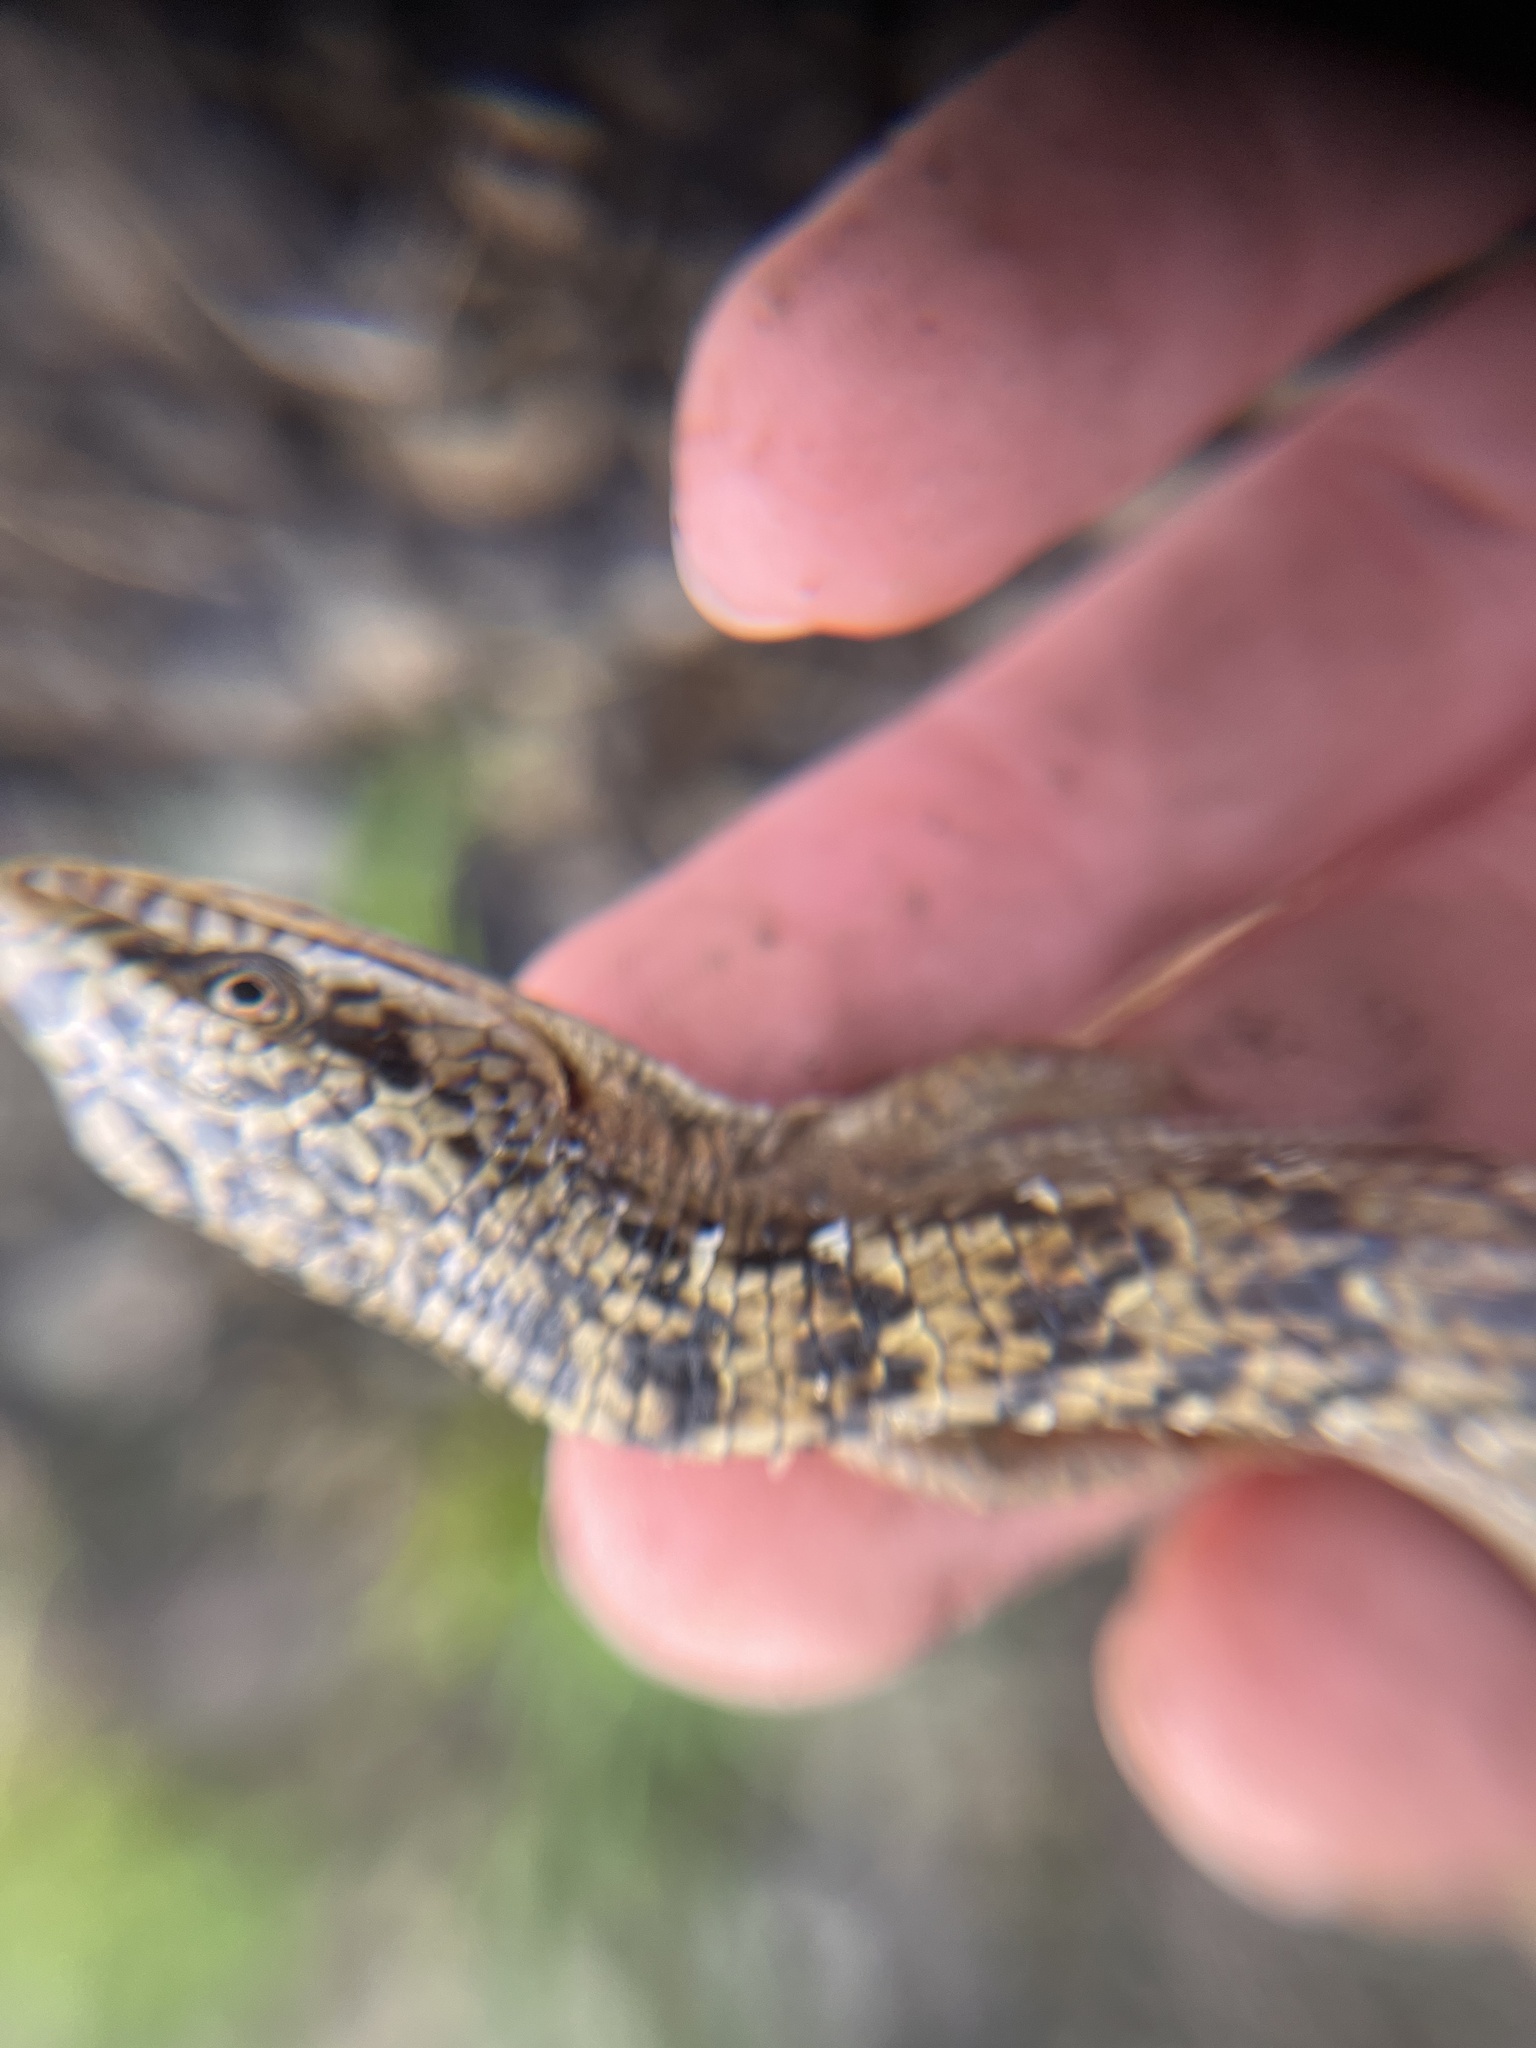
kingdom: Animalia
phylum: Chordata
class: Squamata
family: Anguidae
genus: Elgaria
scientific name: Elgaria multicarinata
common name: Southern alligator lizard
